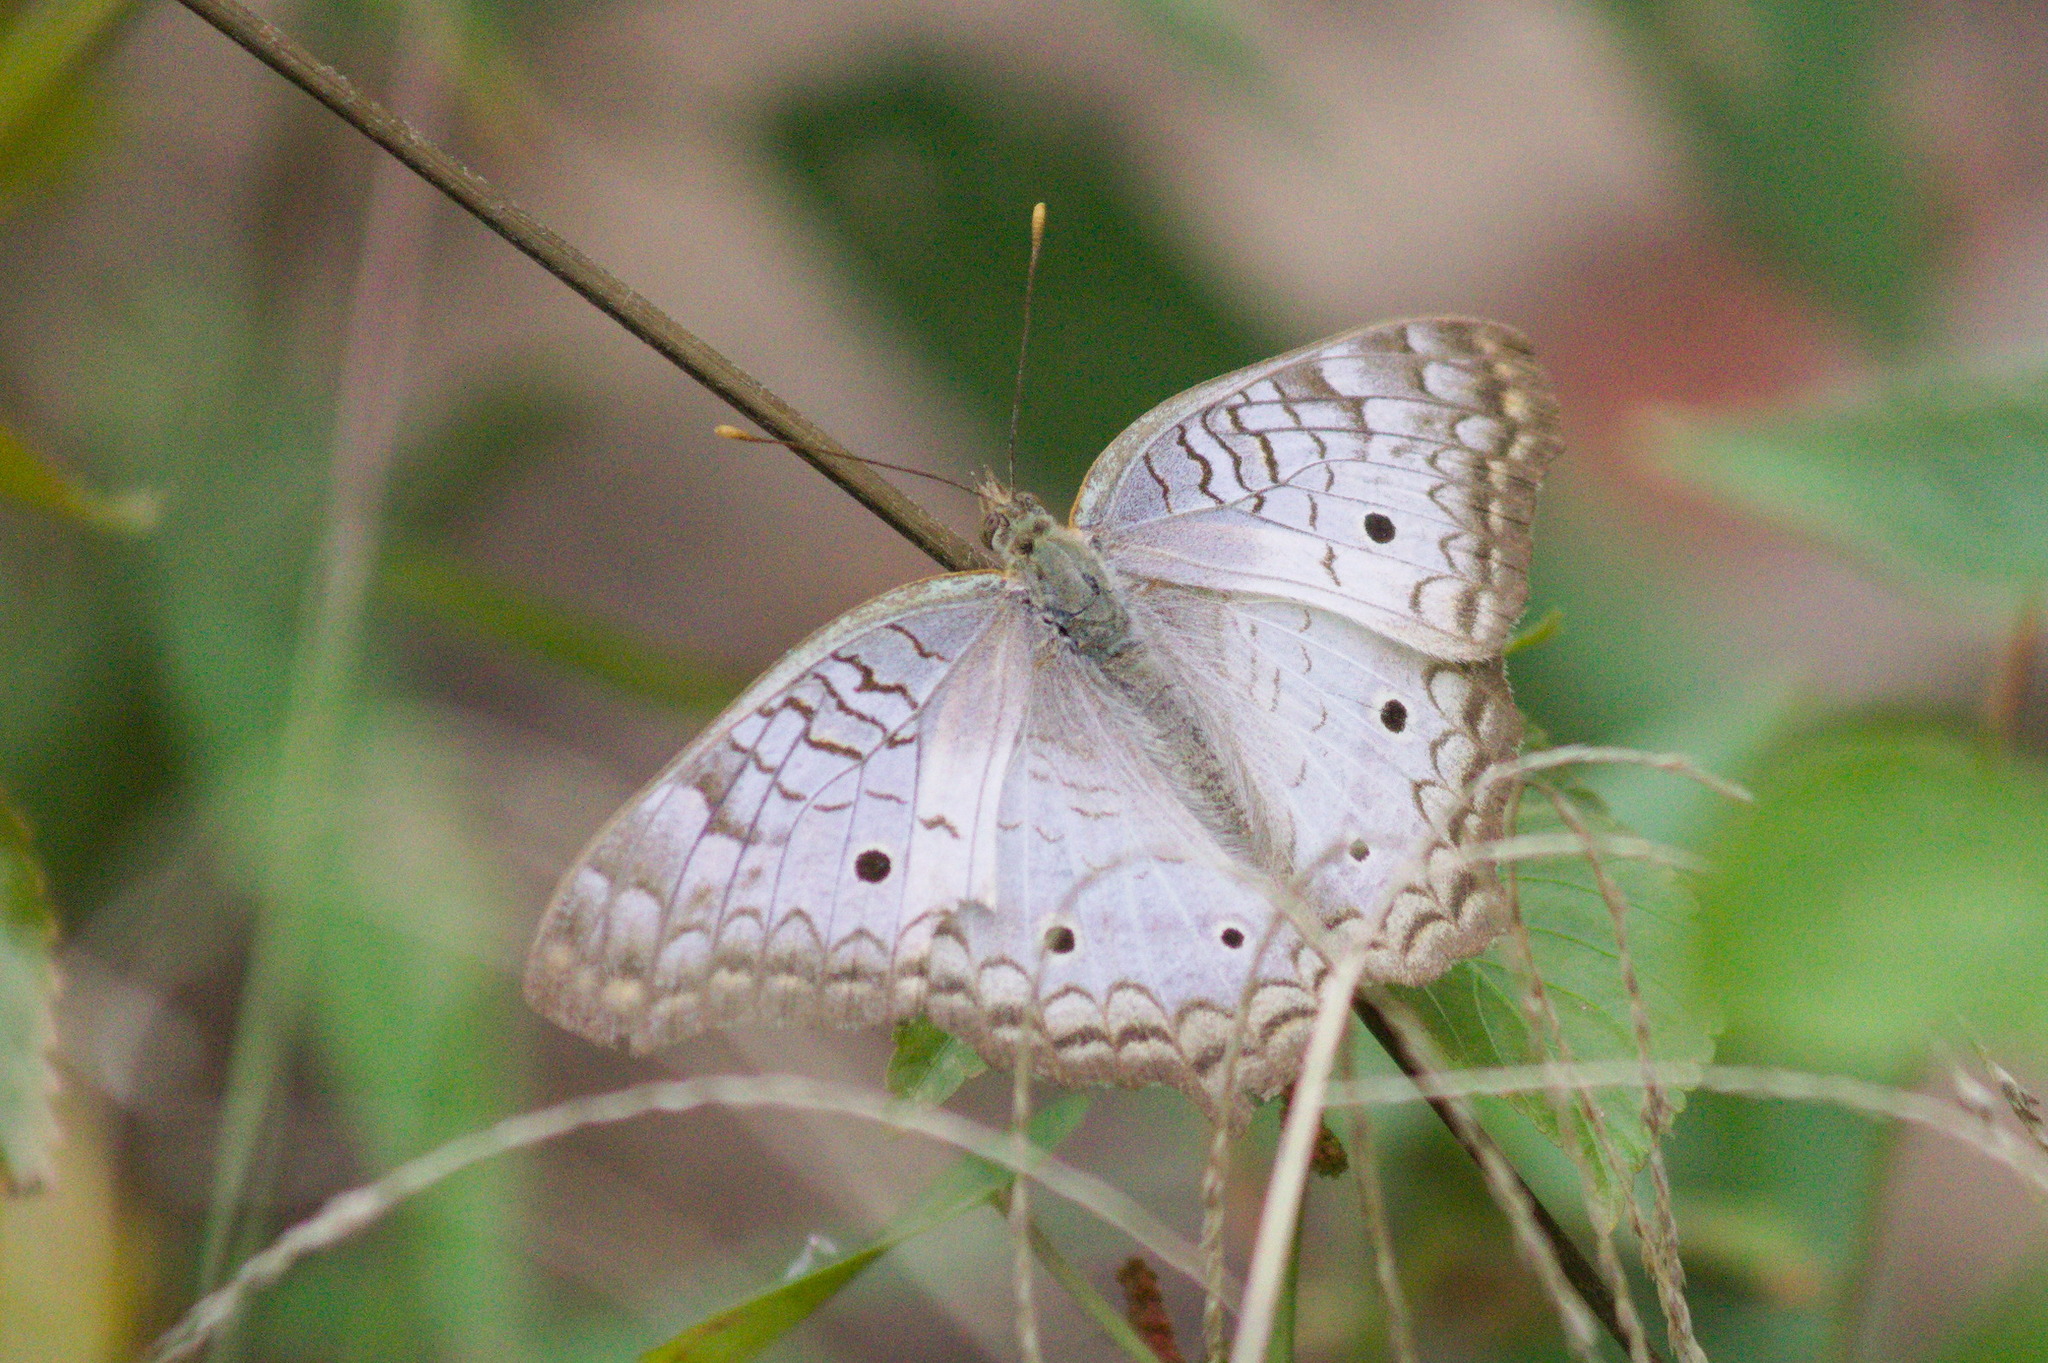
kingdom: Animalia
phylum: Arthropoda
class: Insecta
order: Lepidoptera
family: Nymphalidae
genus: Anartia
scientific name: Anartia jatrophae
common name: White peacock
